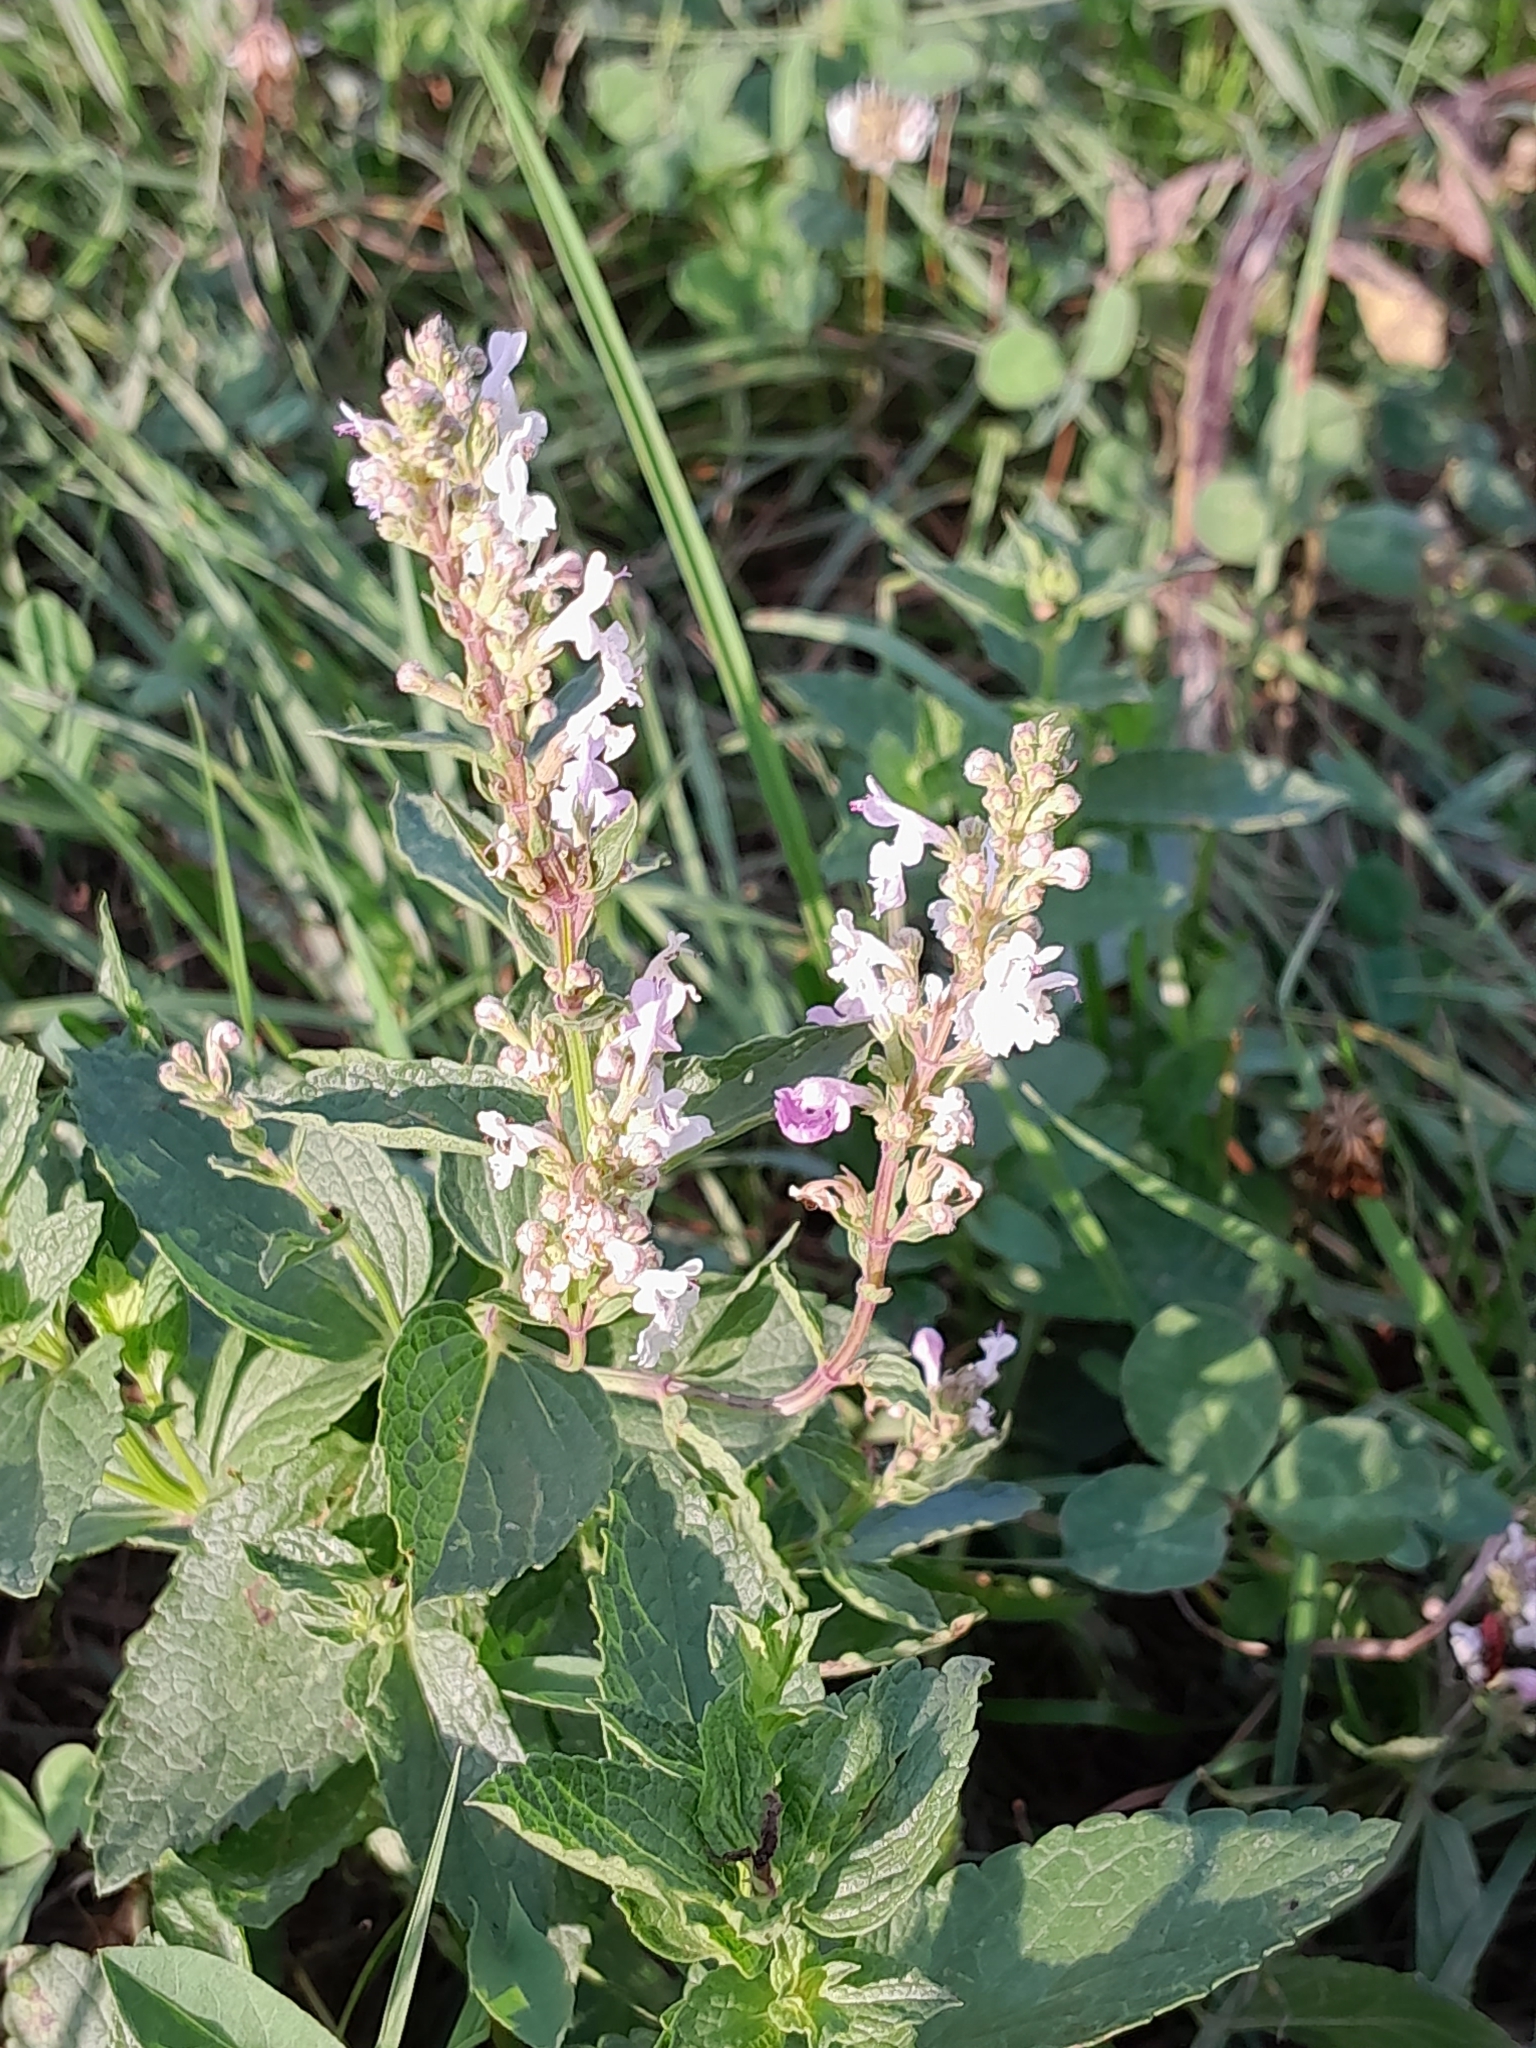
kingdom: Plantae
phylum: Tracheophyta
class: Magnoliopsida
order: Lamiales
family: Lamiaceae
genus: Nepeta
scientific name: Nepeta nuda
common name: Hairless catmint
